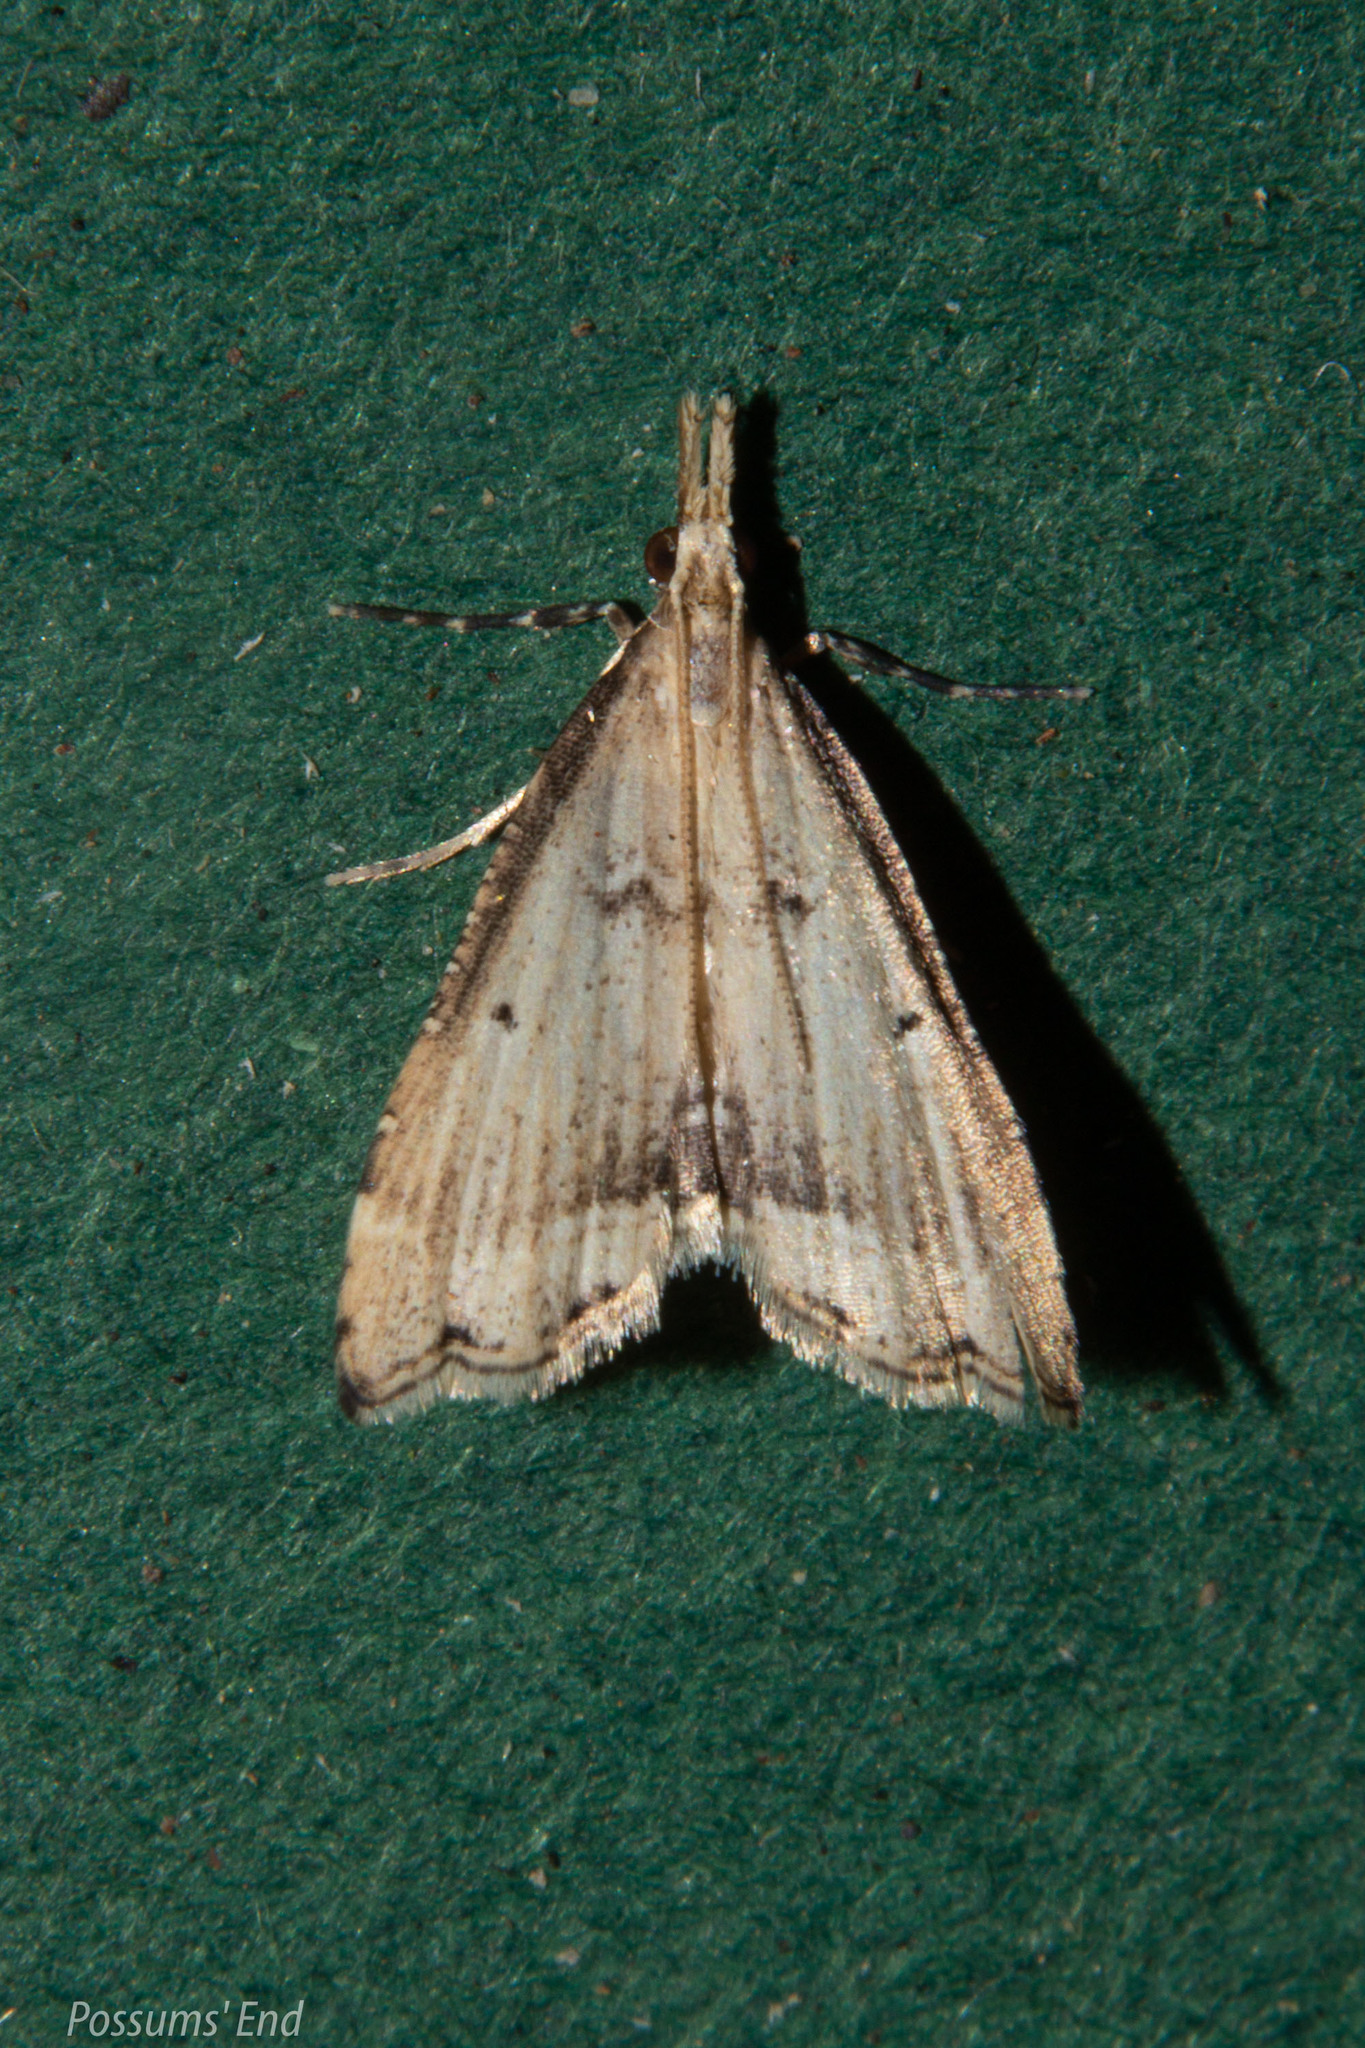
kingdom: Animalia
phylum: Arthropoda
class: Insecta
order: Lepidoptera
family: Crambidae
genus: Diplopseustis
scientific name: Diplopseustis perieresalis
